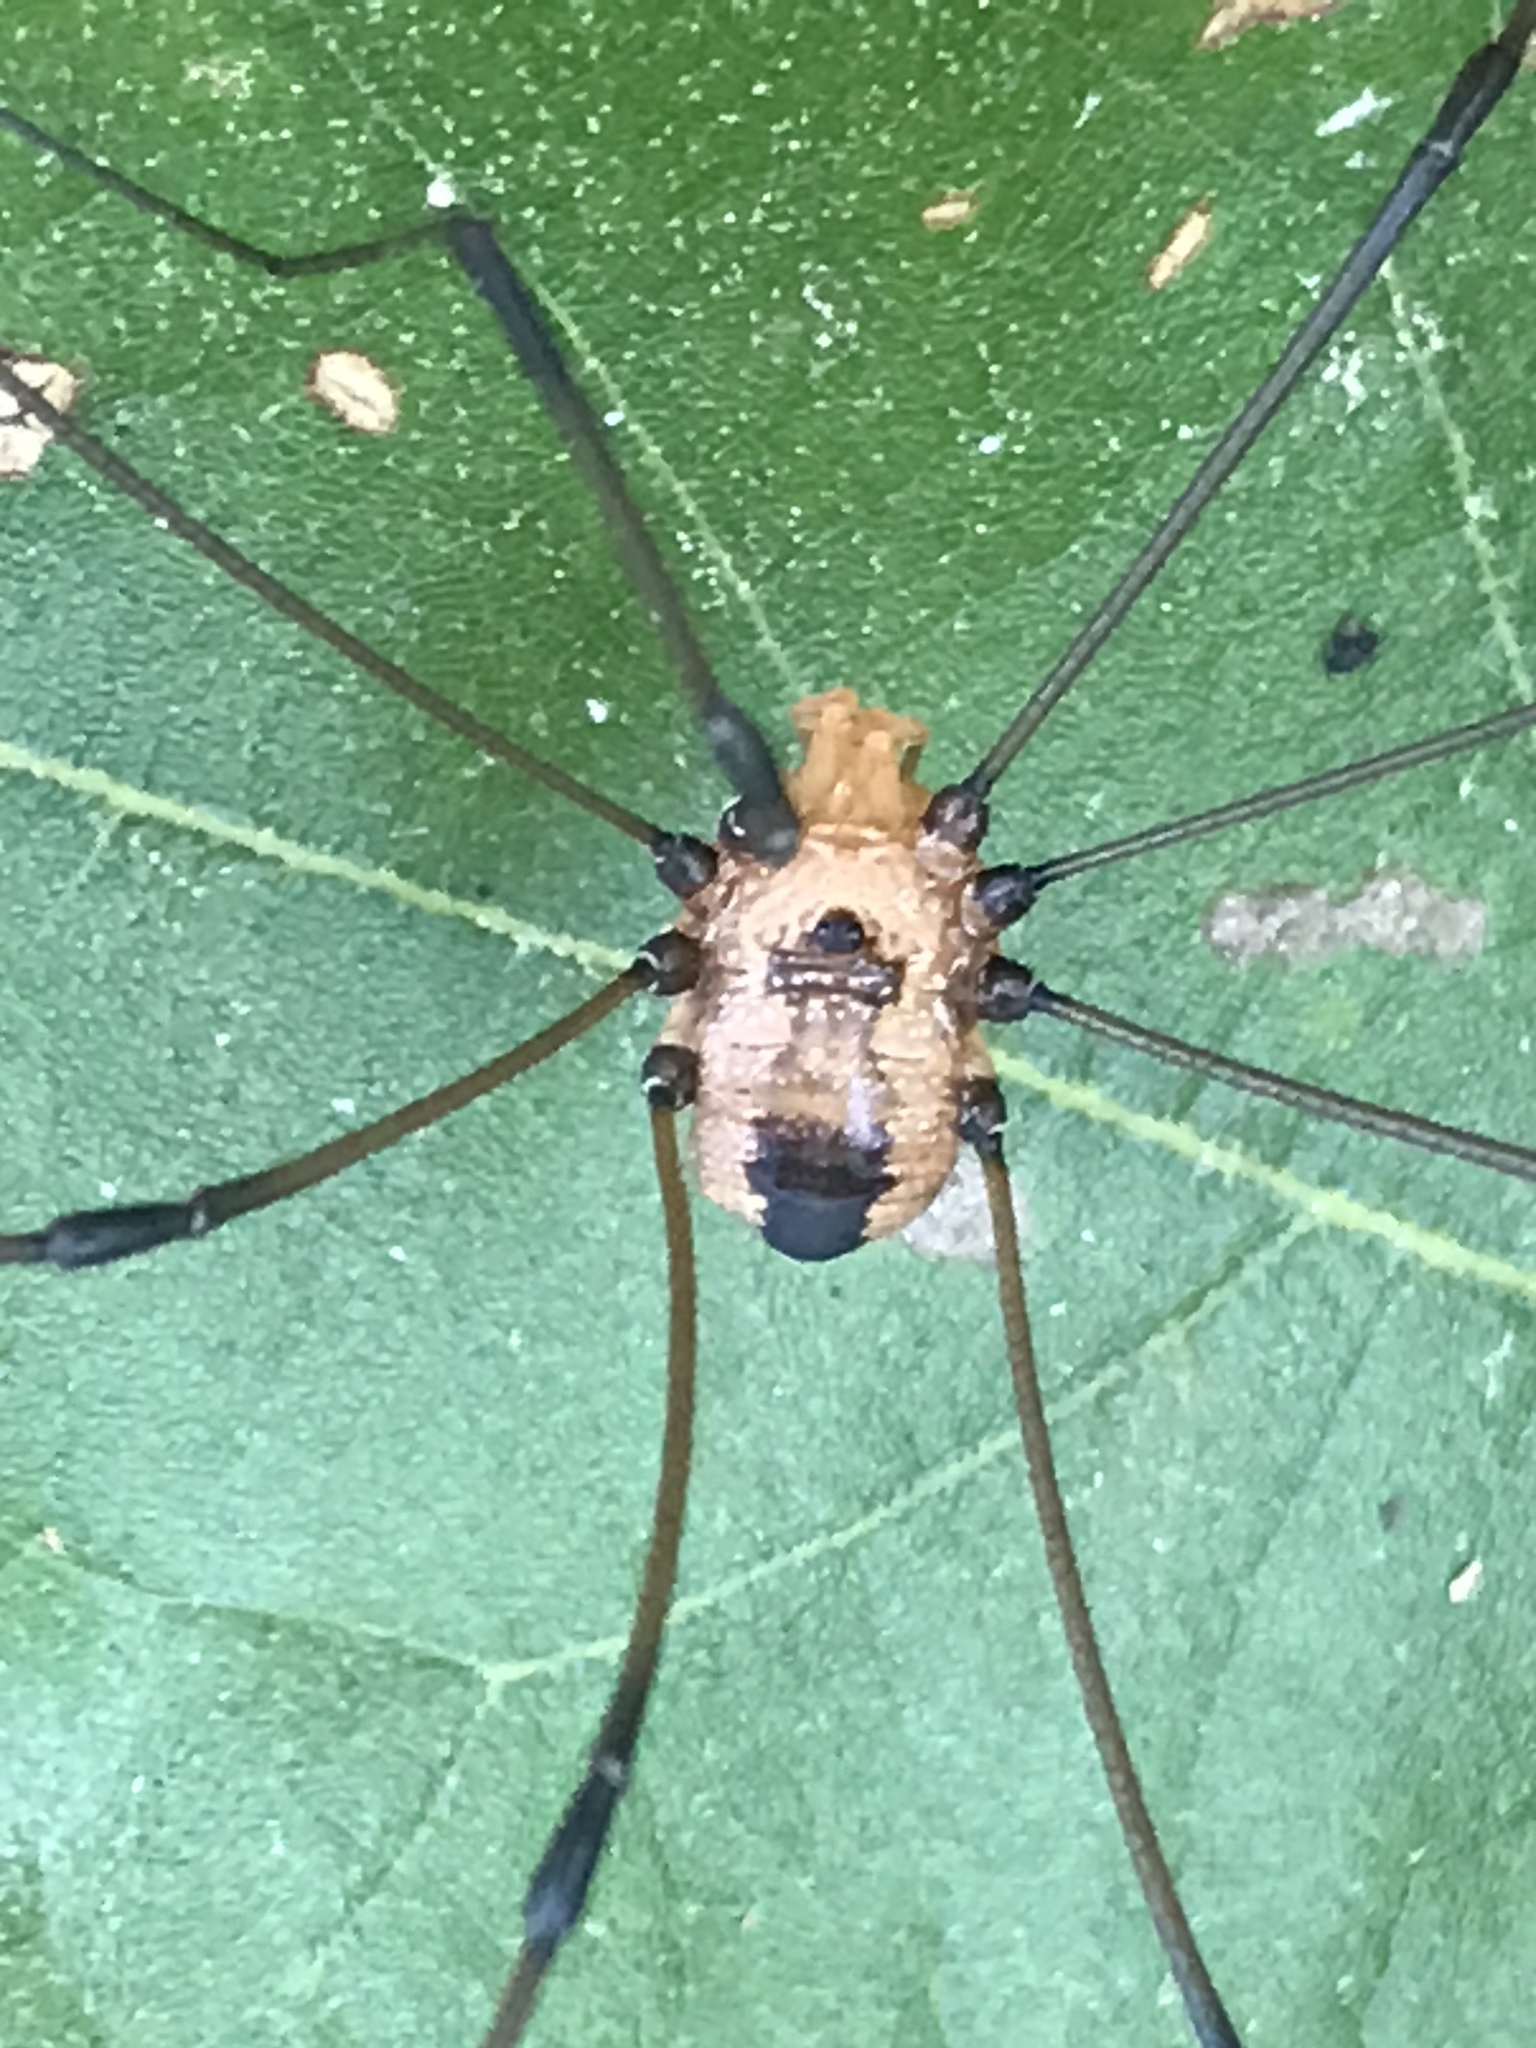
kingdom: Animalia
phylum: Arthropoda
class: Arachnida
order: Opiliones
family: Sclerosomatidae
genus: Leiobunum
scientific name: Leiobunum vittatum
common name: Eastern harvestman
